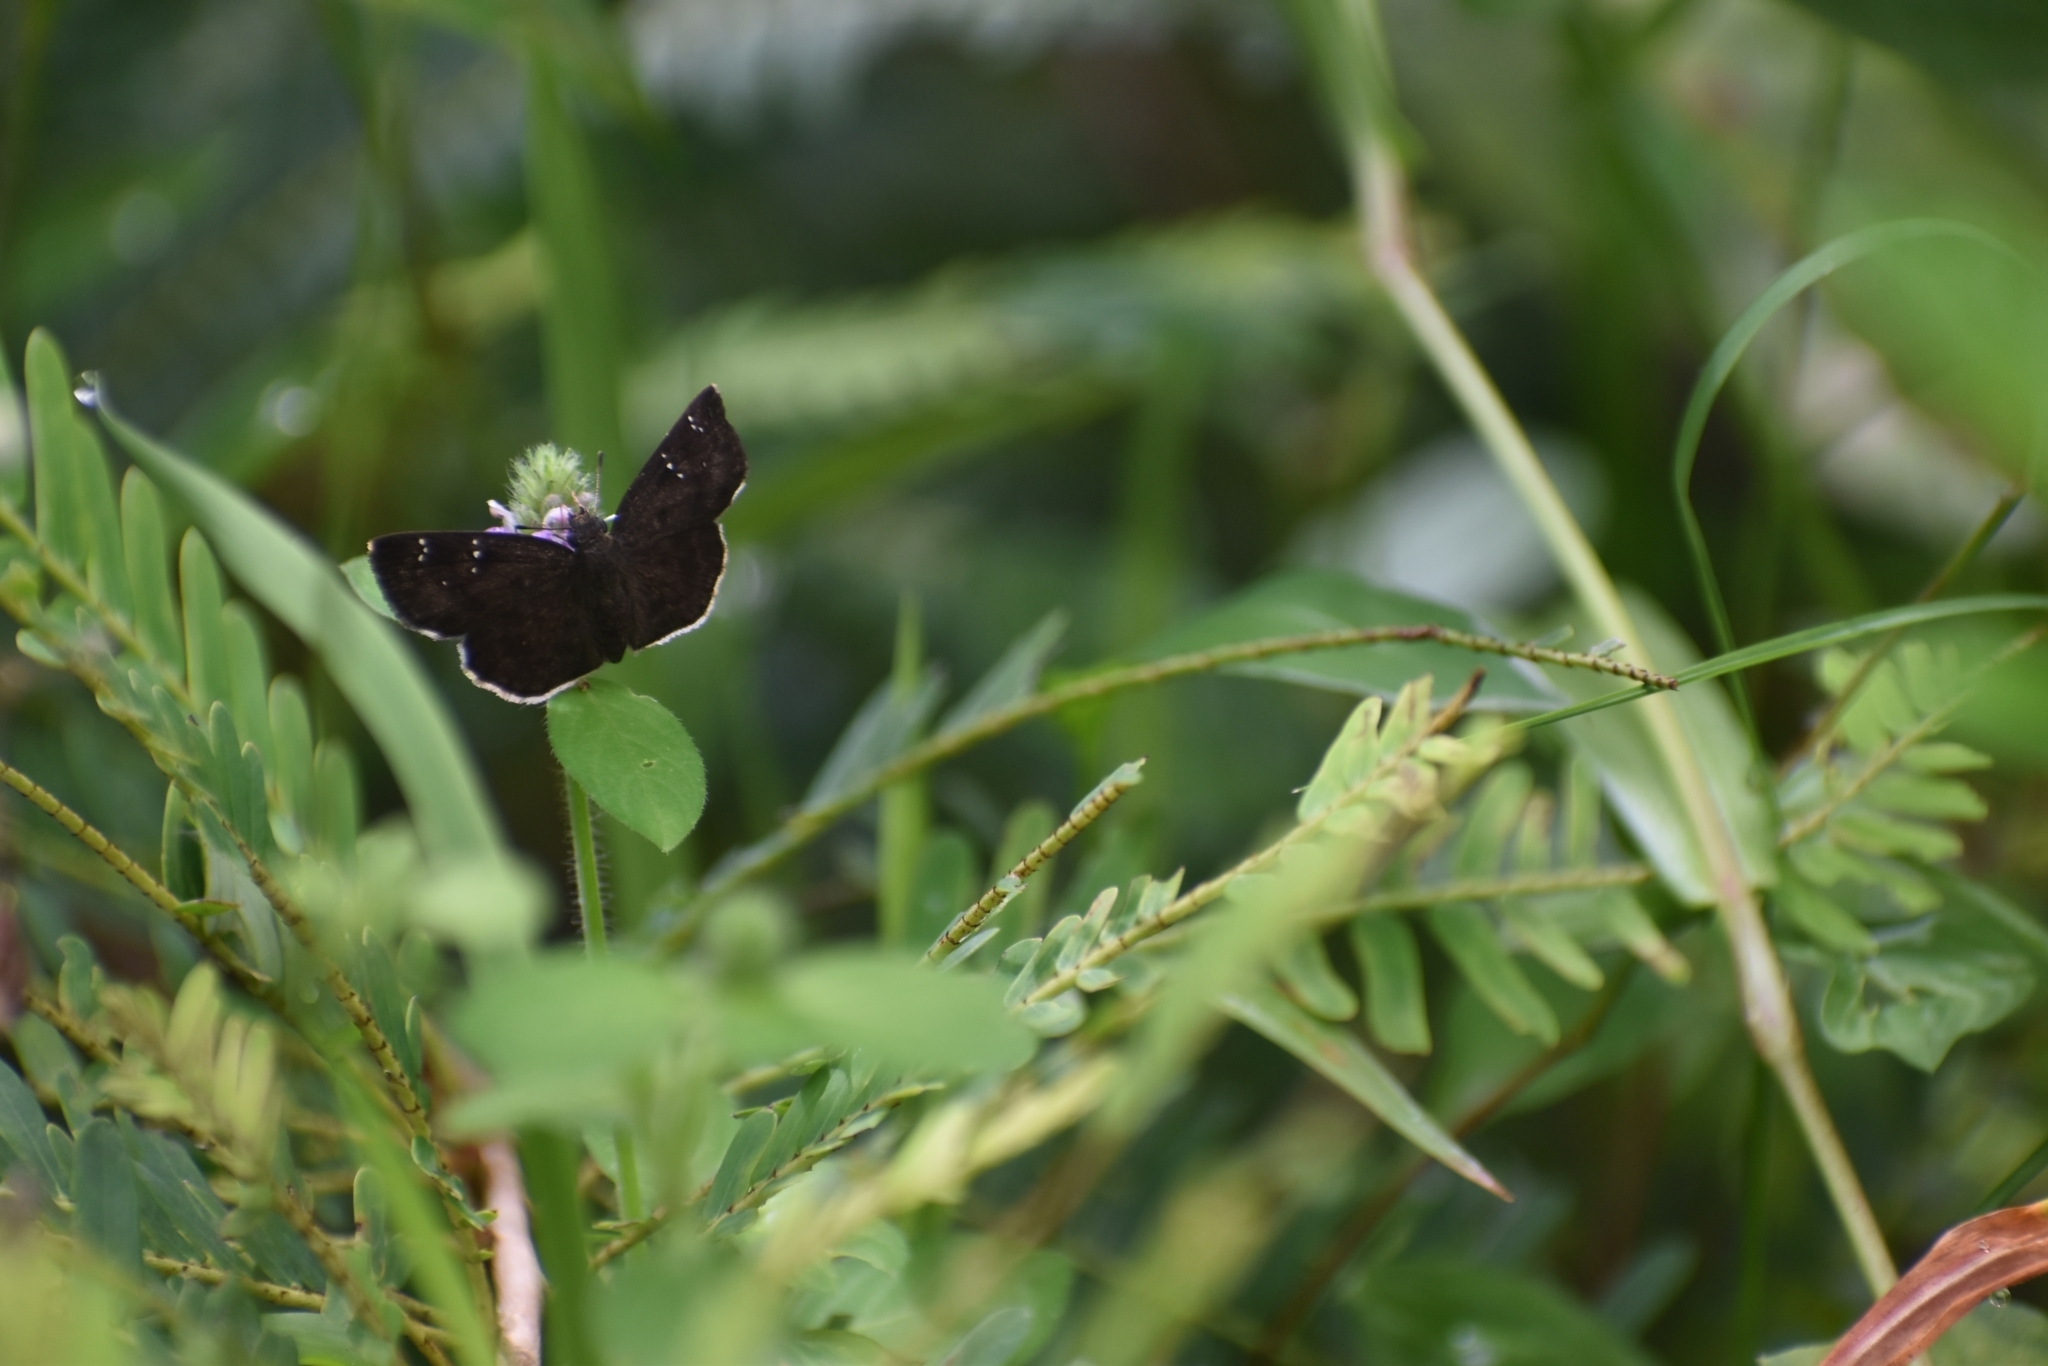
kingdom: Animalia
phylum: Arthropoda
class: Insecta
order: Lepidoptera
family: Hesperiidae
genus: Sarangesa
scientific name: Sarangesa dasahara
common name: Common small flat
